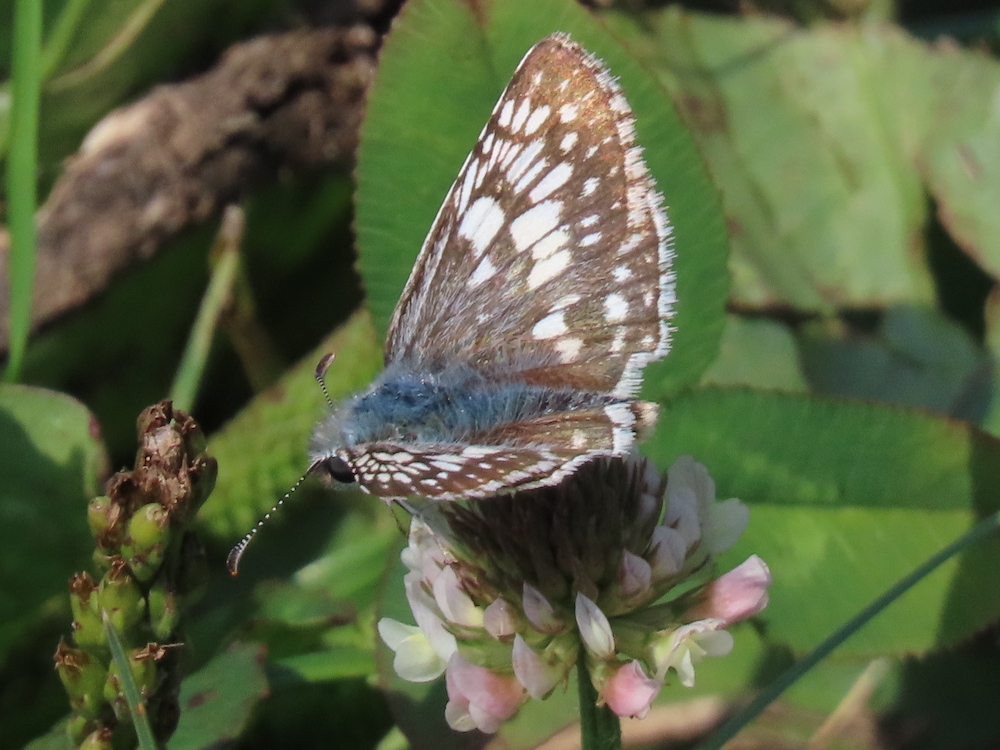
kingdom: Animalia
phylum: Arthropoda
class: Insecta
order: Lepidoptera
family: Hesperiidae
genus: Burnsius
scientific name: Burnsius communis
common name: Common checkered-skipper
